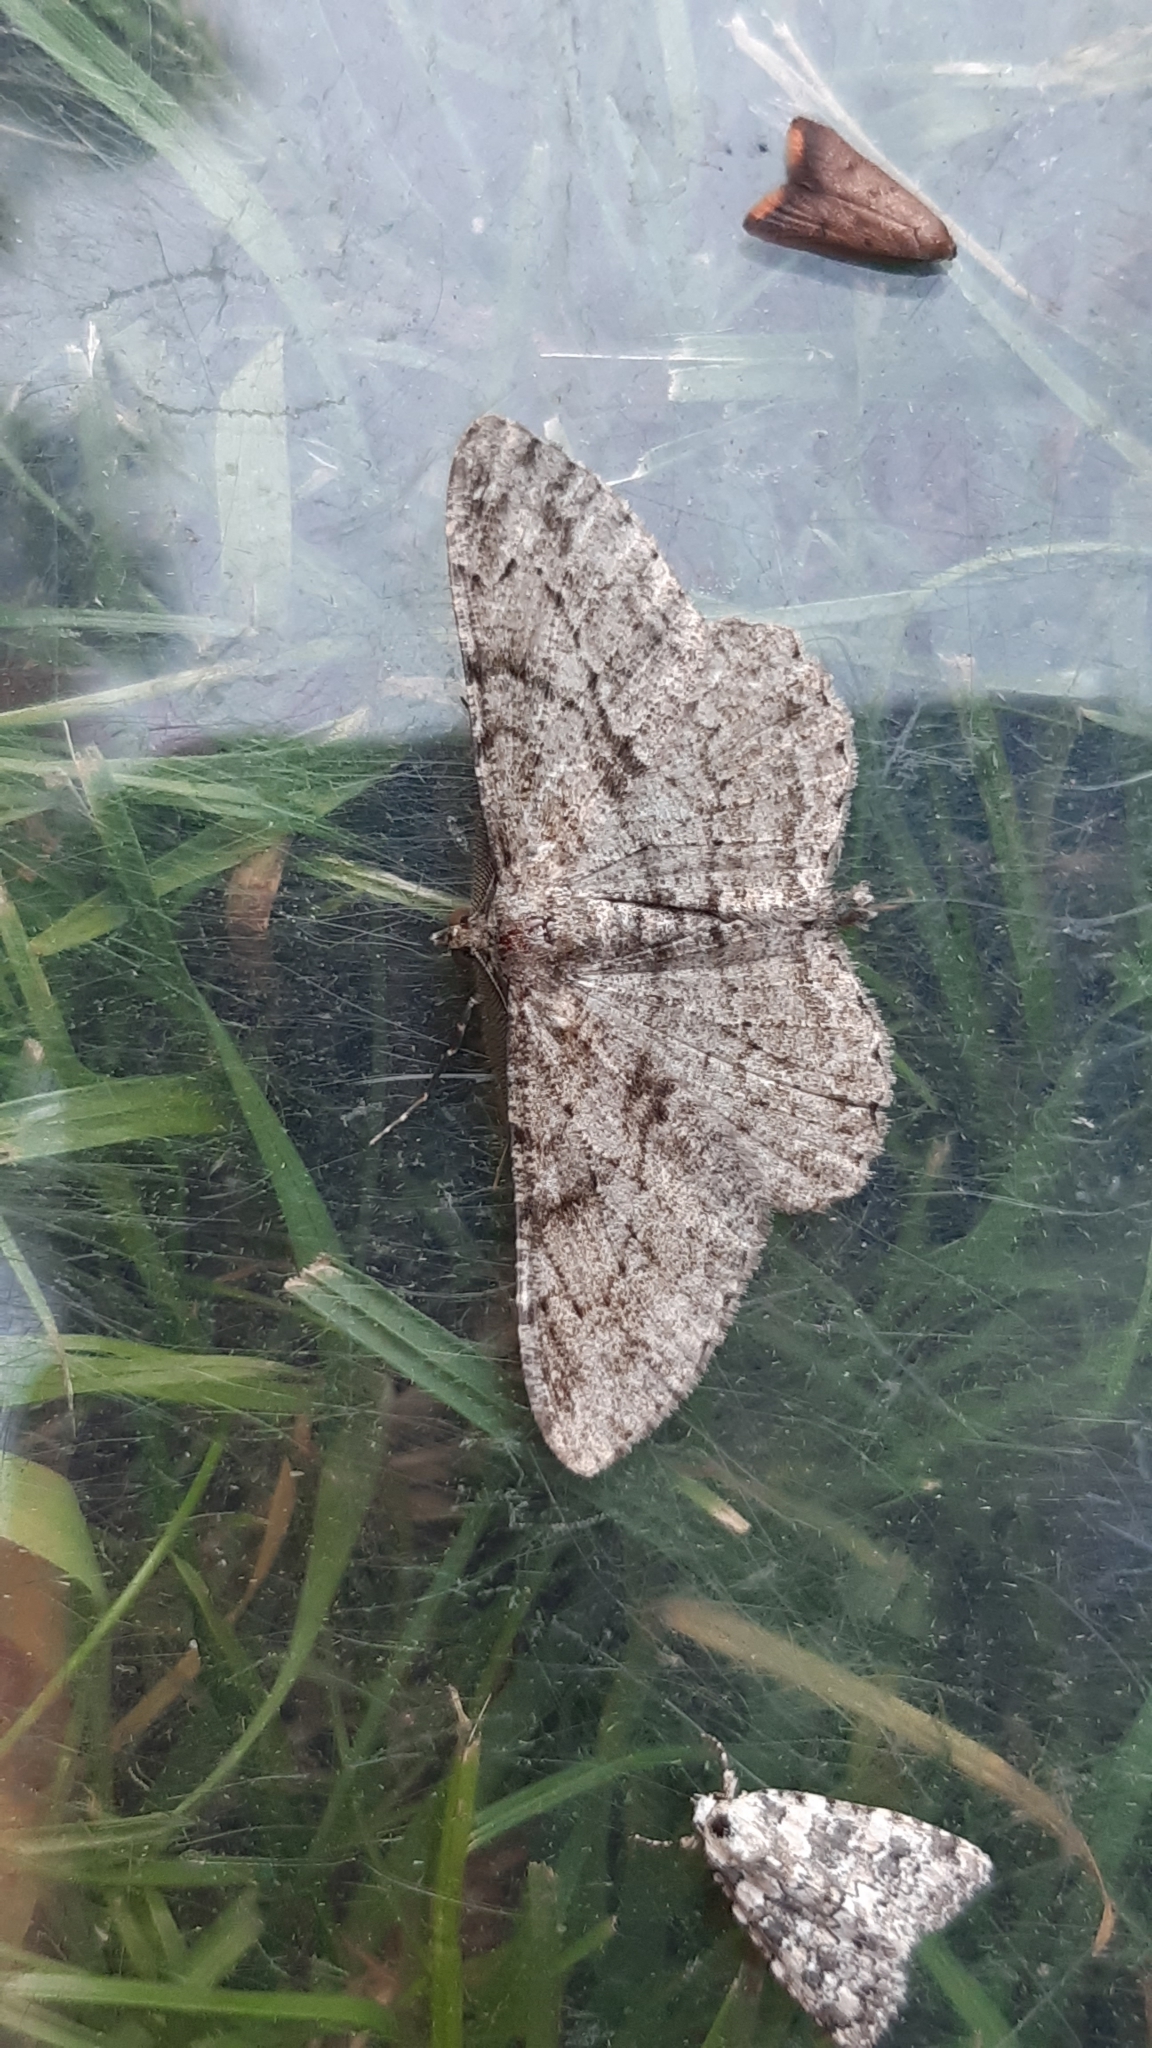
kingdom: Animalia
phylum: Arthropoda
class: Insecta
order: Lepidoptera
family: Geometridae
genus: Peribatodes
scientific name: Peribatodes rhomboidaria
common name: Willow beauty
